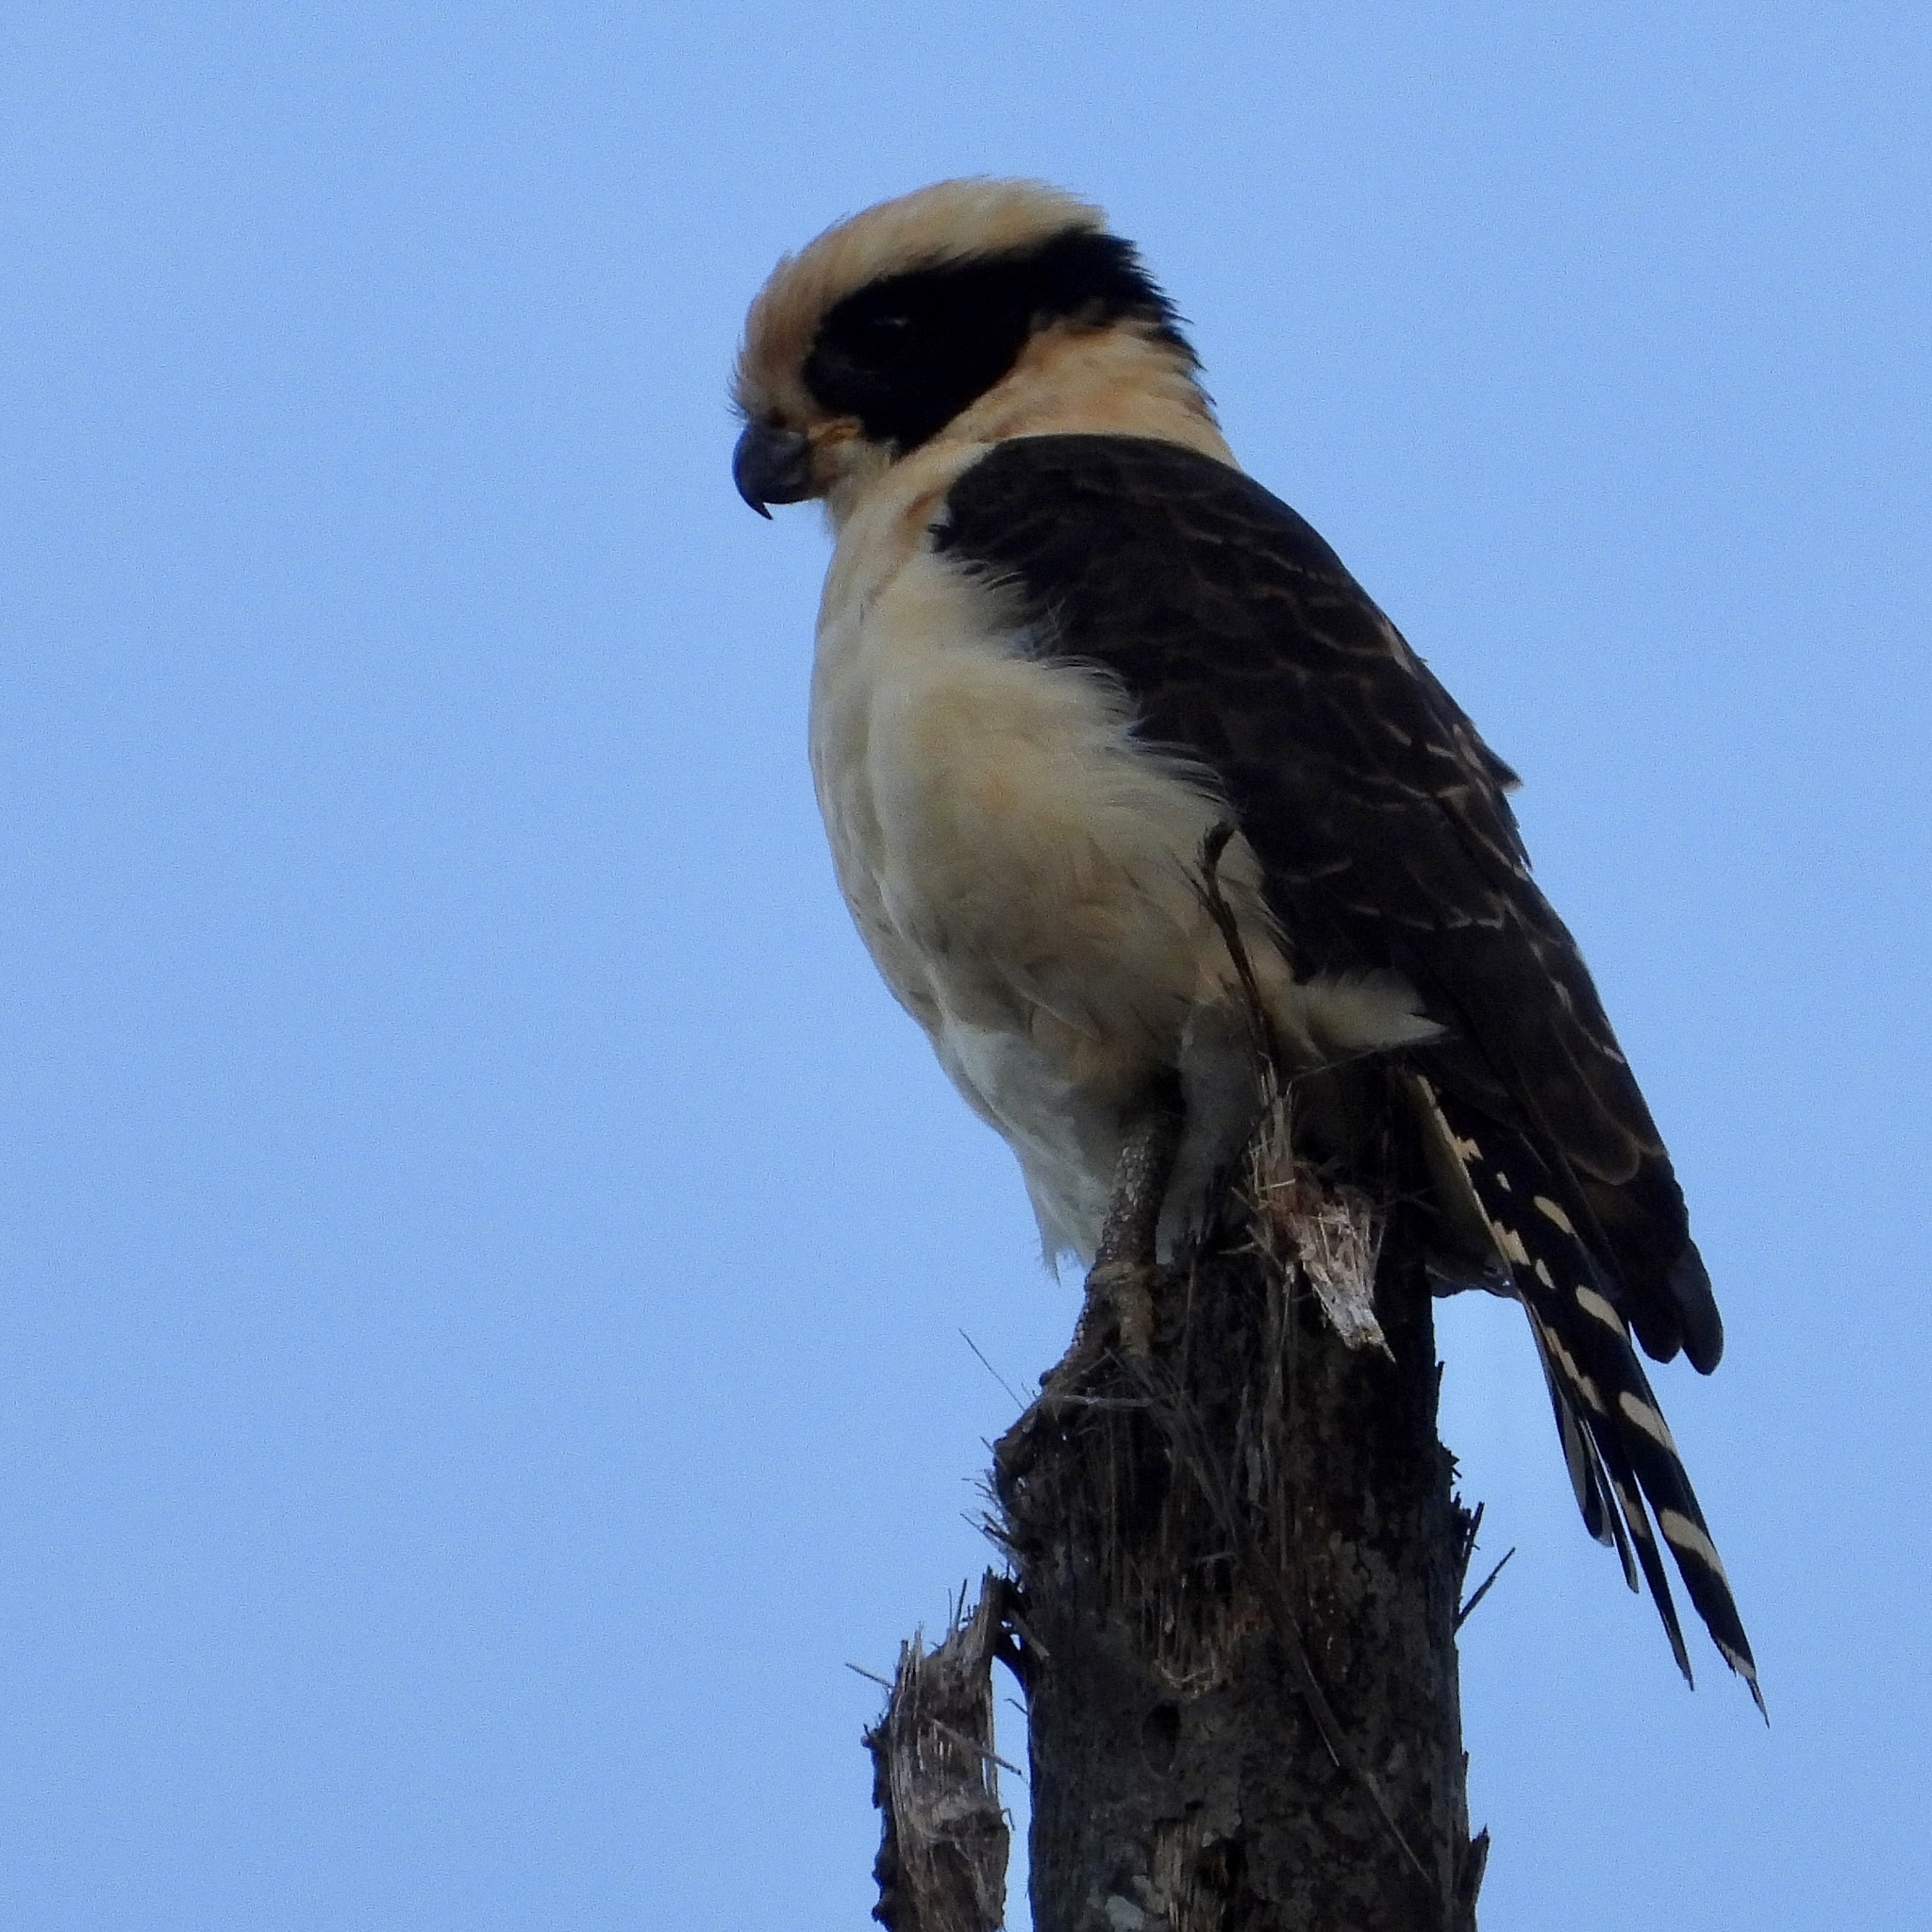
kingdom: Animalia
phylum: Chordata
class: Aves
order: Falconiformes
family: Falconidae
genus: Herpetotheres
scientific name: Herpetotheres cachinnans
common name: Laughing falcon
